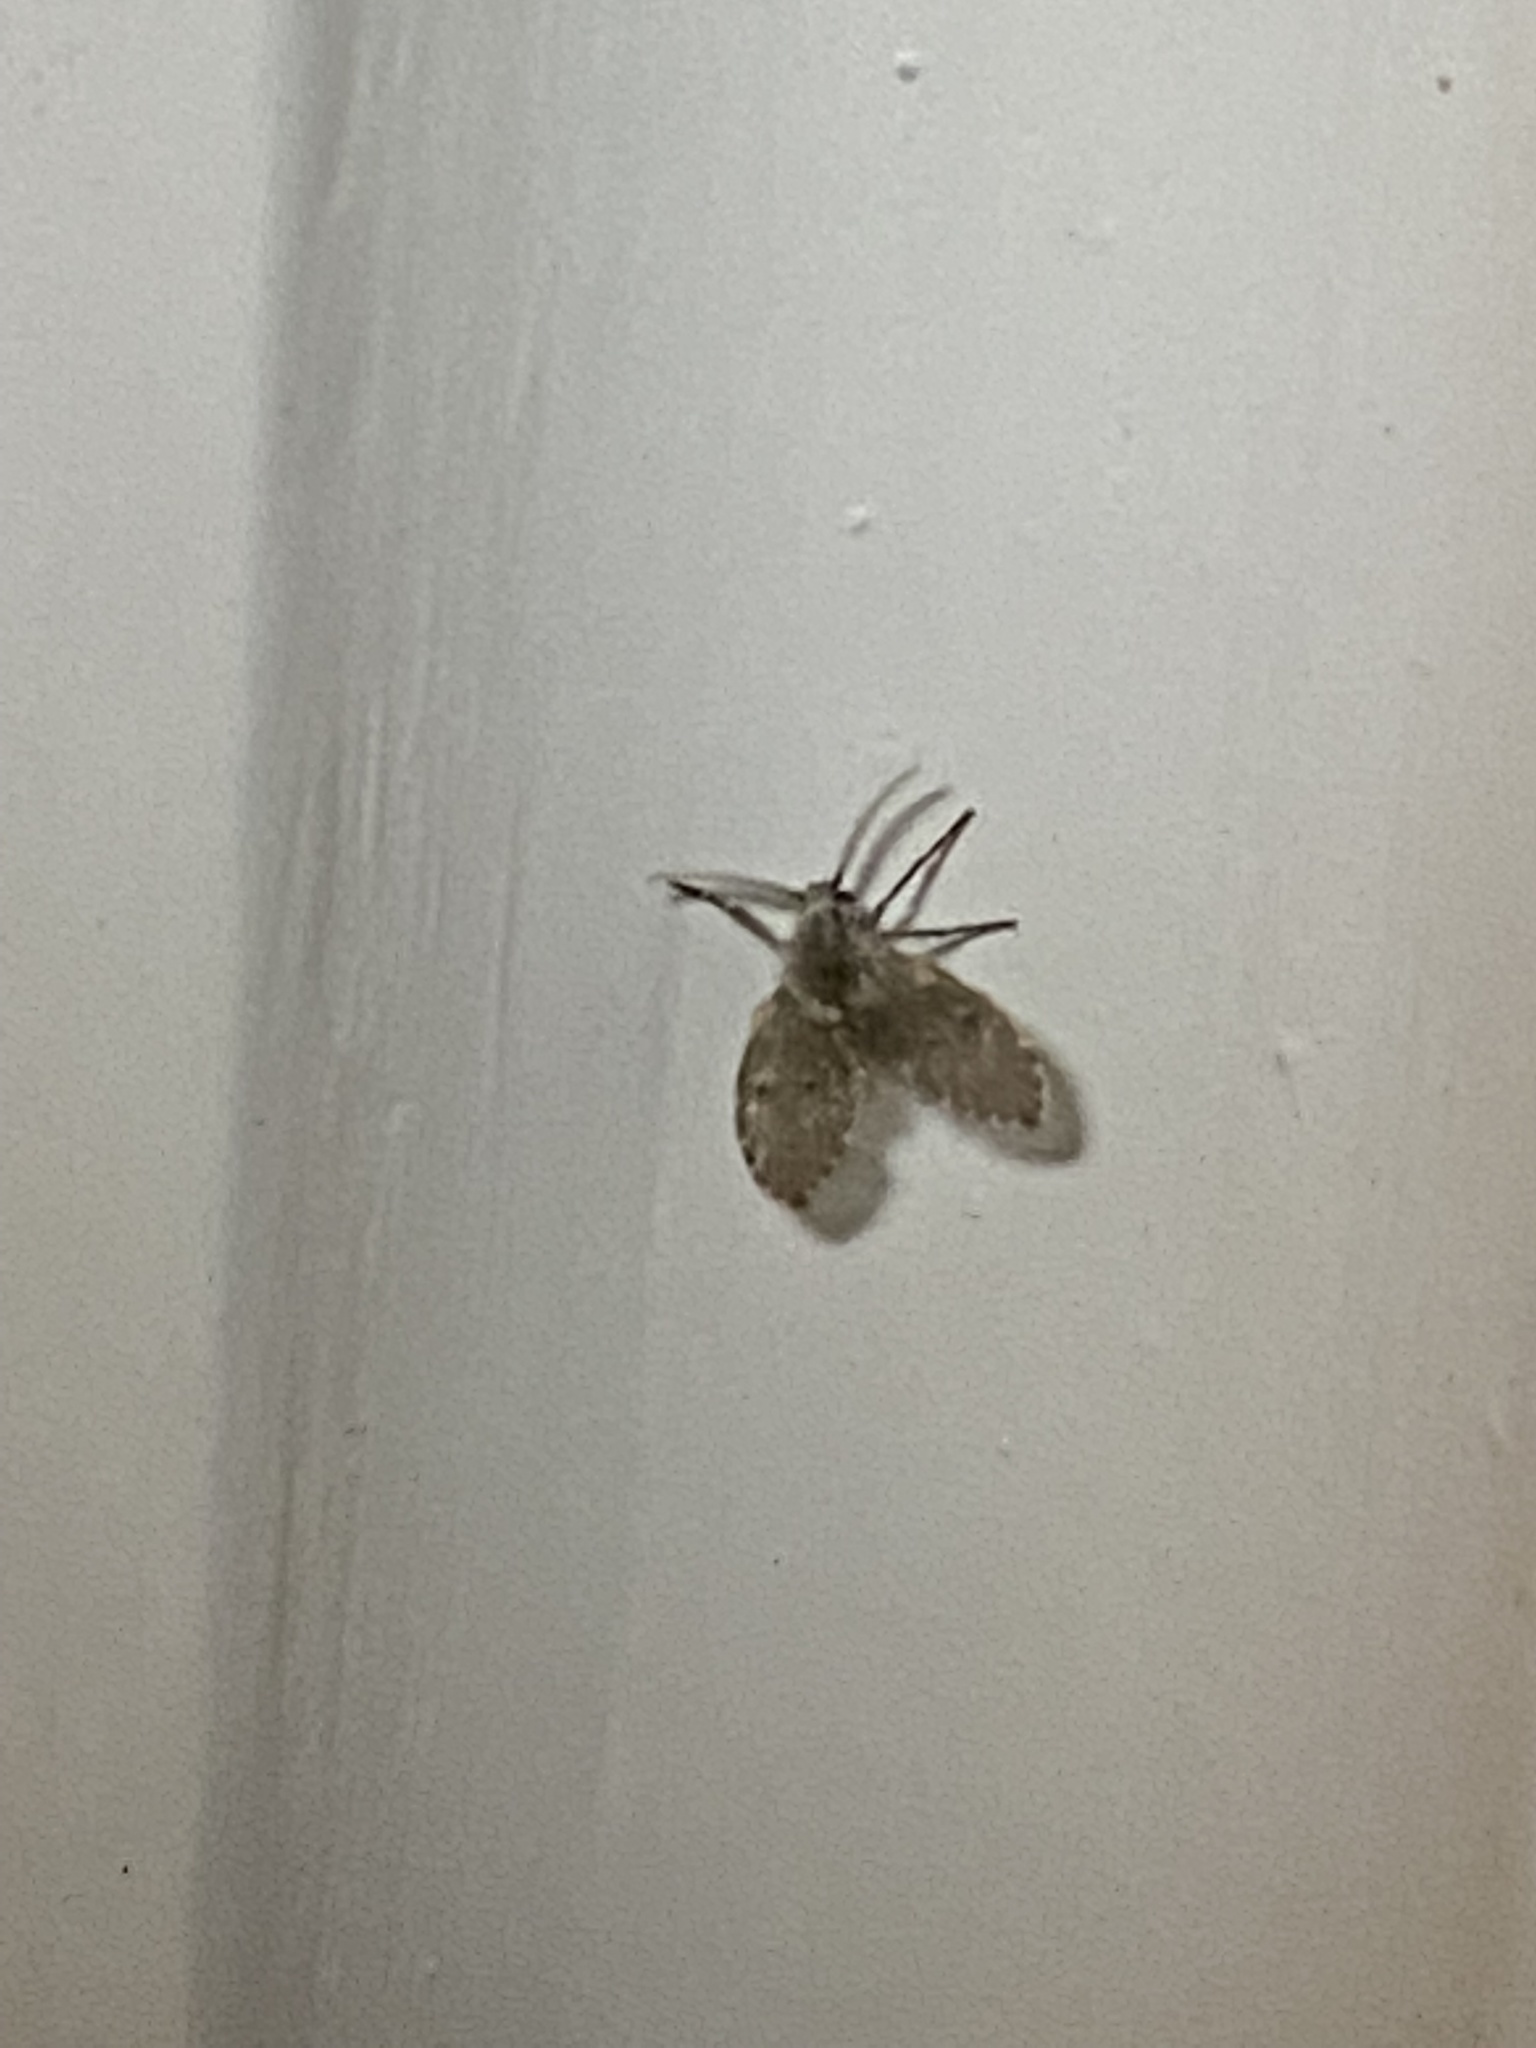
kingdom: Animalia
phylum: Arthropoda
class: Insecta
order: Diptera
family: Psychodidae
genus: Clogmia
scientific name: Clogmia albipunctatus
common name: White-spotted moth fly
